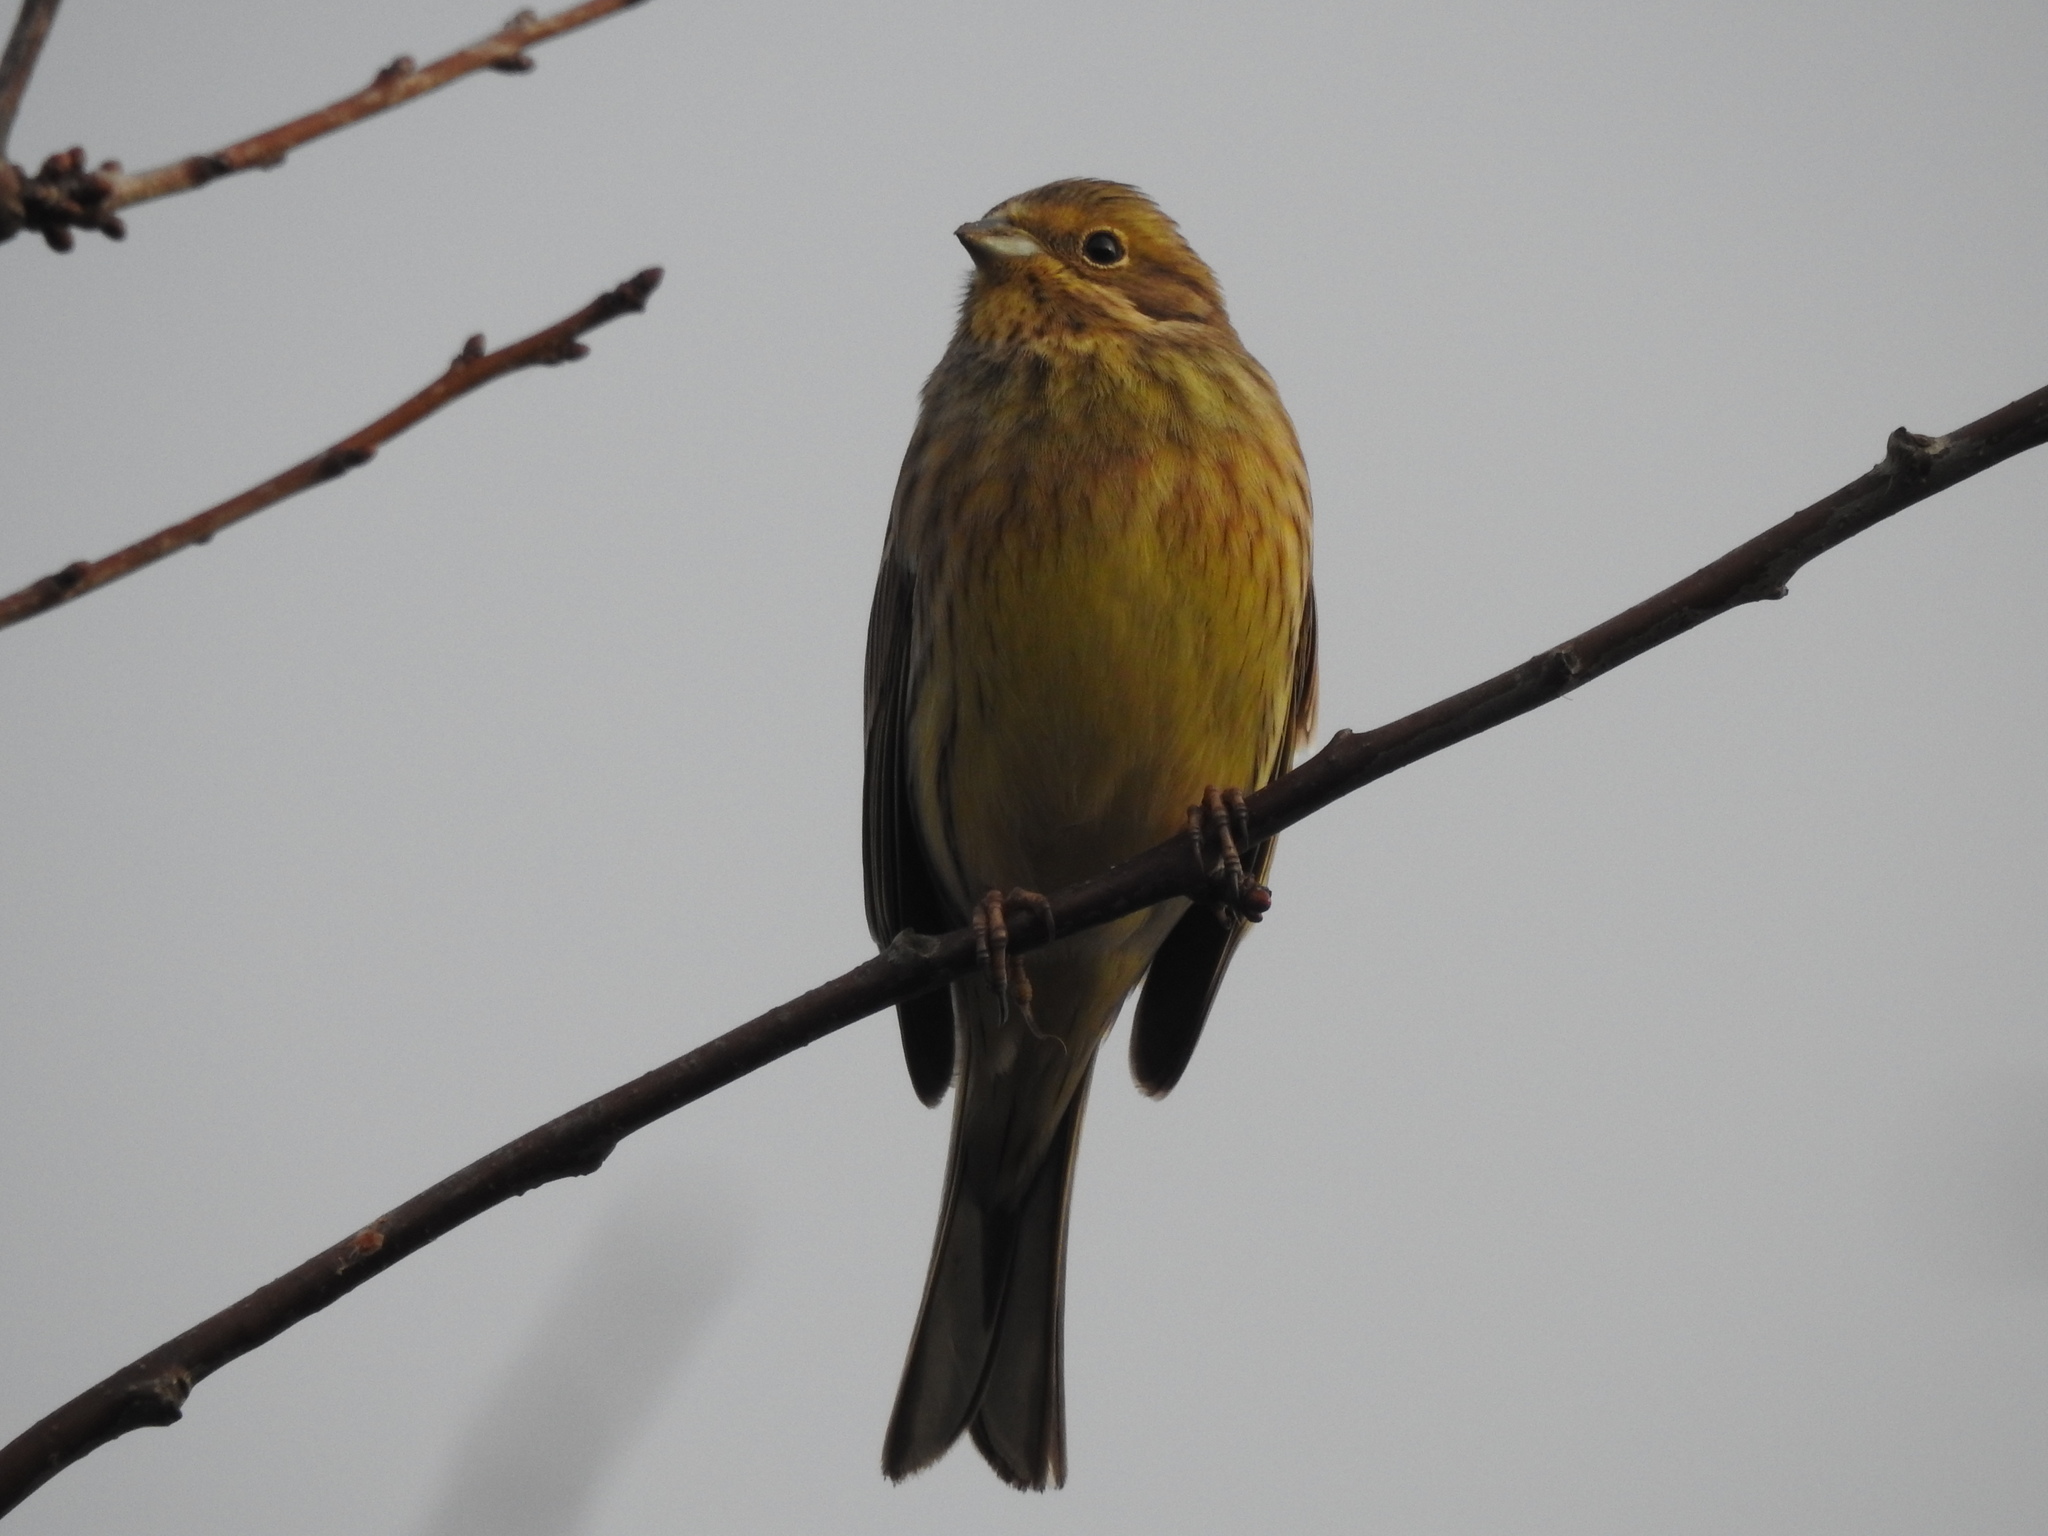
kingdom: Animalia
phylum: Chordata
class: Aves
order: Passeriformes
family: Emberizidae
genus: Emberiza
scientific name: Emberiza citrinella
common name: Yellowhammer
